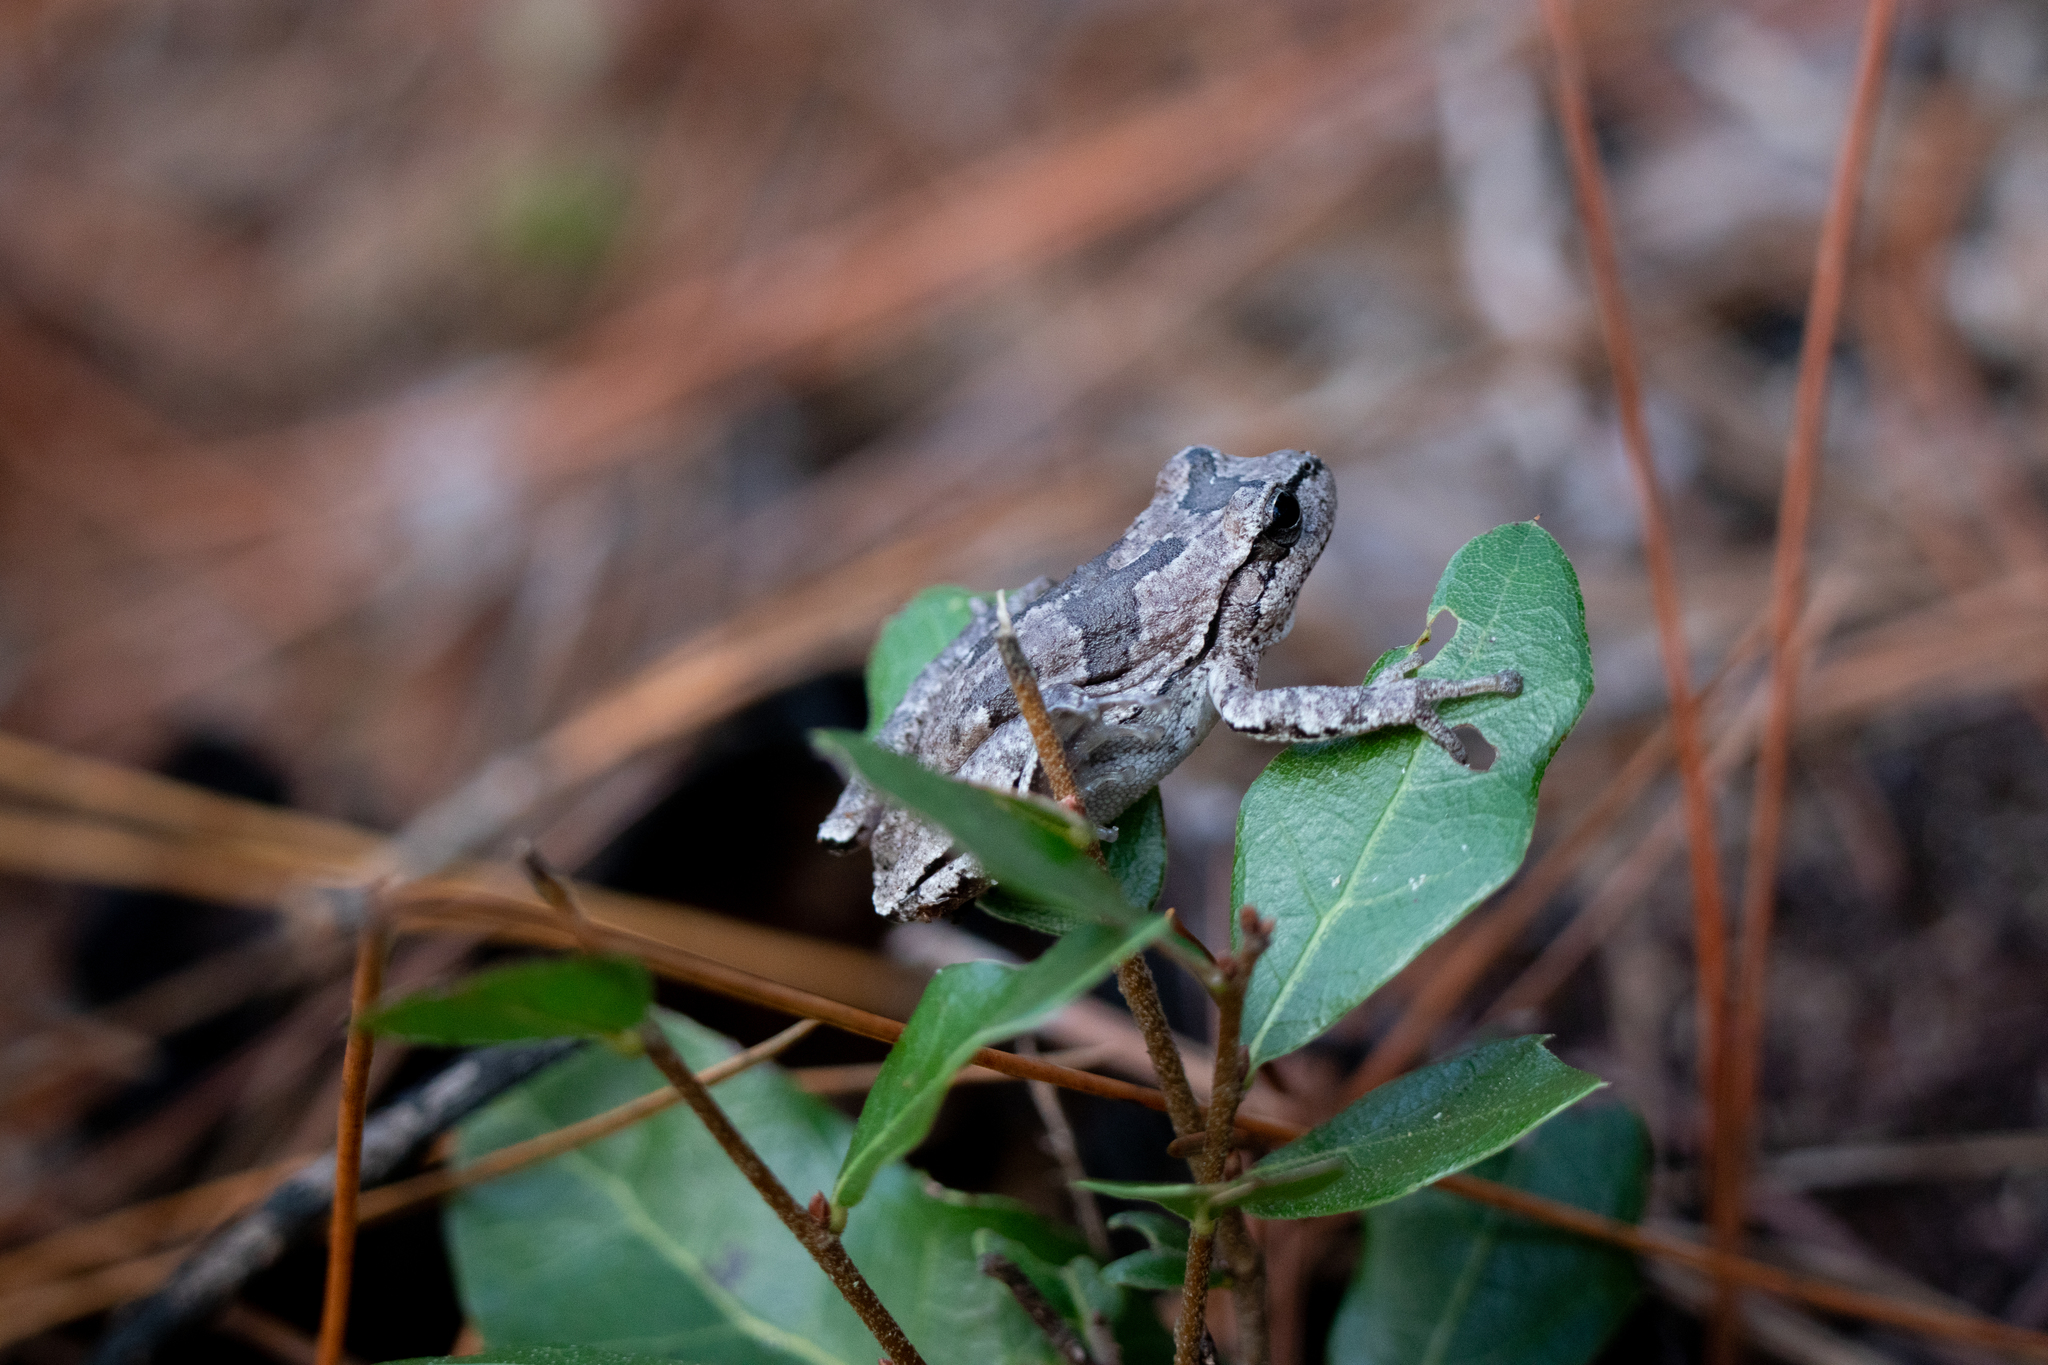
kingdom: Animalia
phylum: Chordata
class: Amphibia
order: Anura
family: Hylidae
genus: Hyla
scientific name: Hyla femoralis
